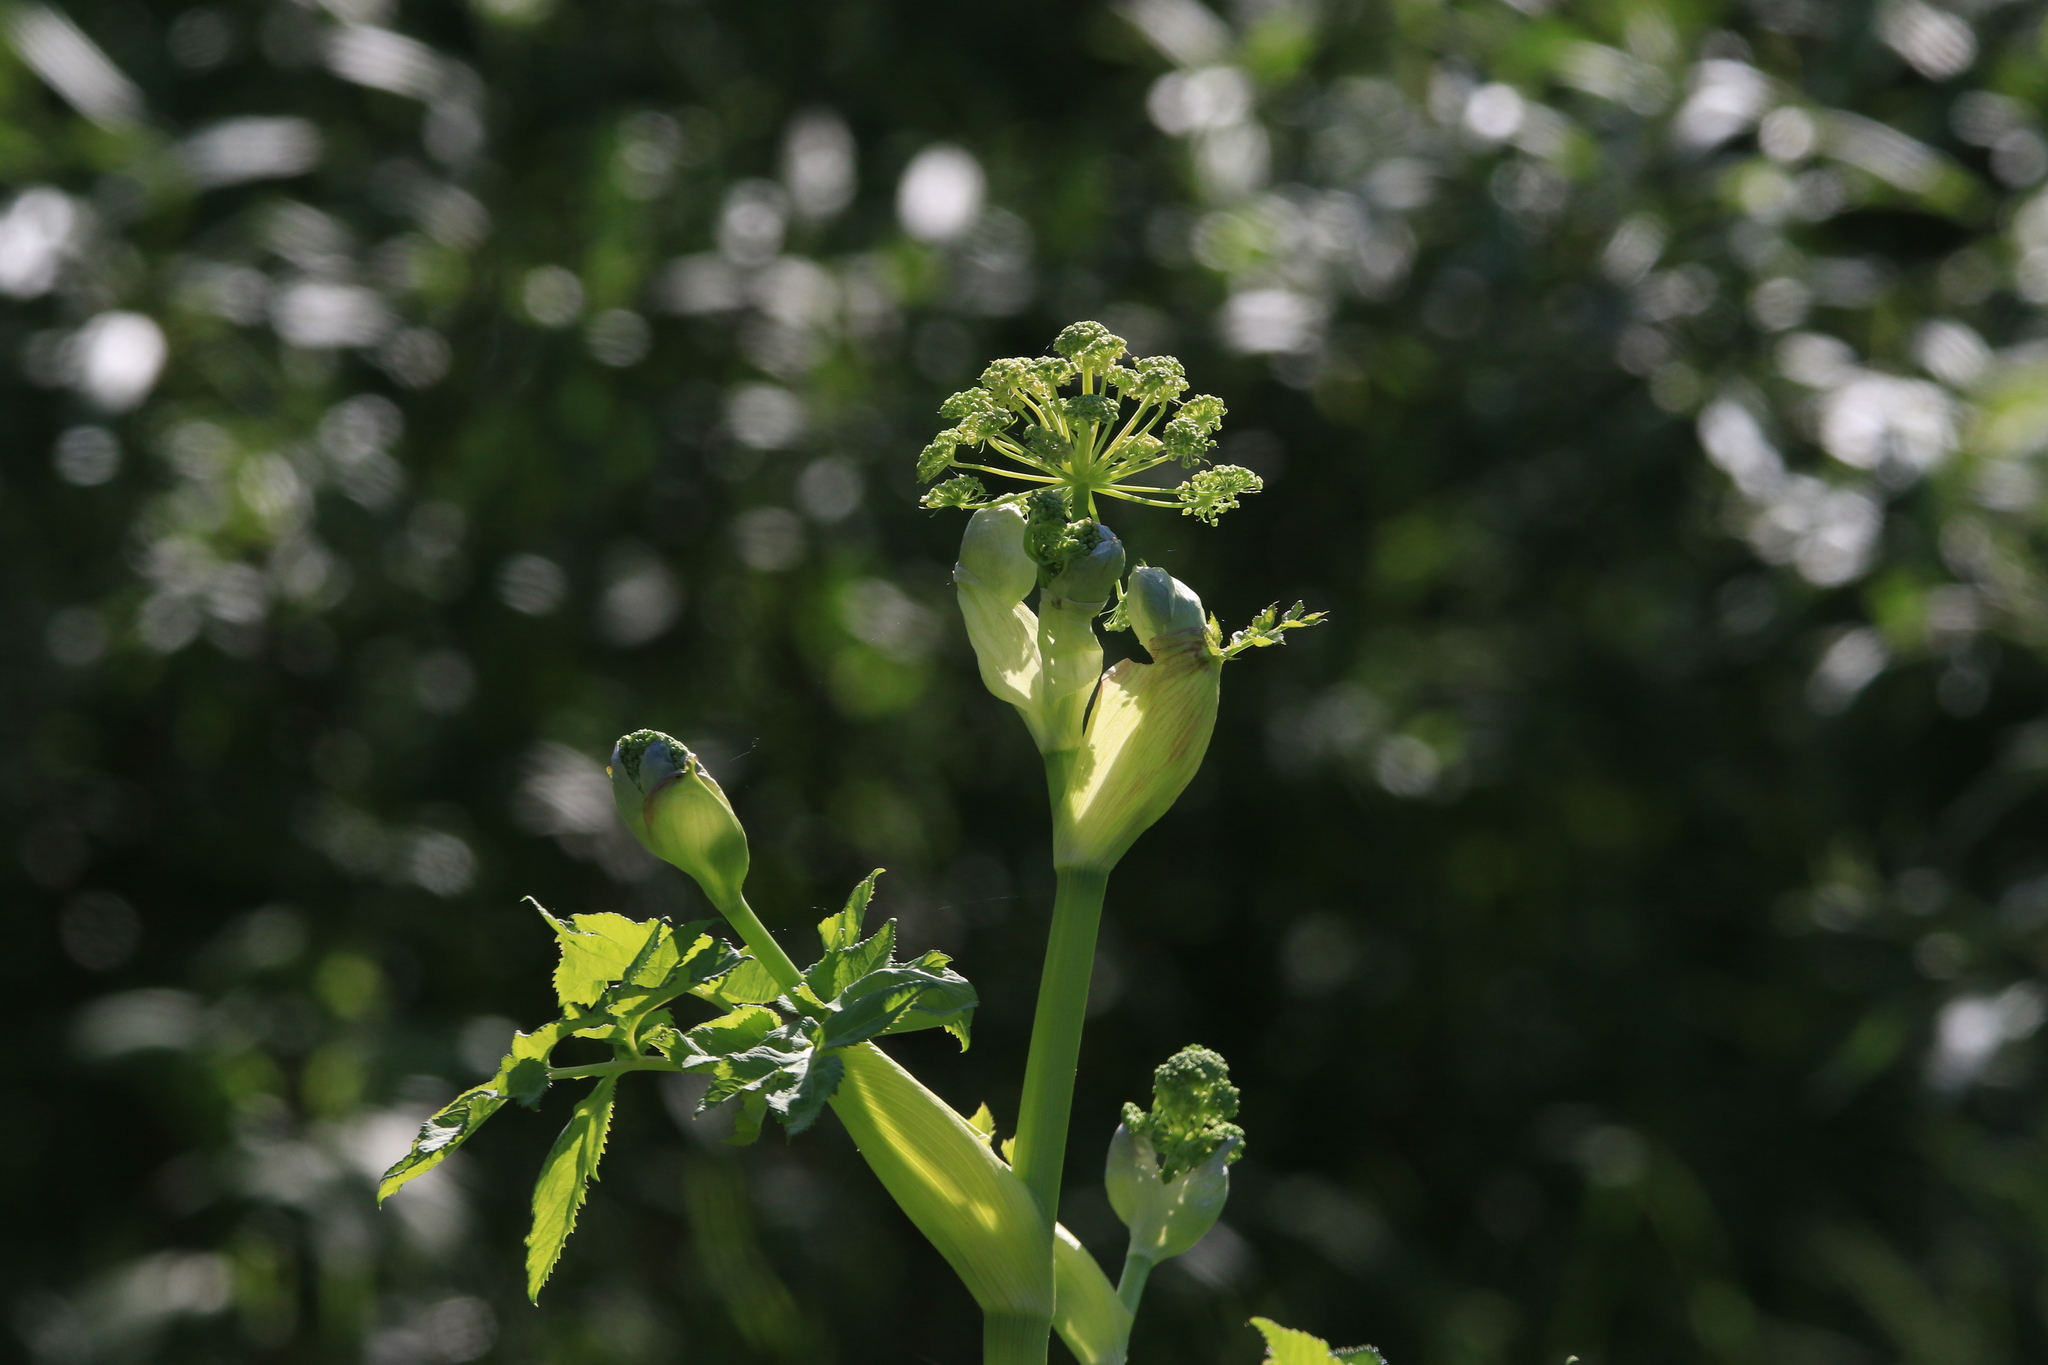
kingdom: Plantae
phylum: Tracheophyta
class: Magnoliopsida
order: Apiales
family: Apiaceae
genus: Angelica
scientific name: Angelica decurrens
